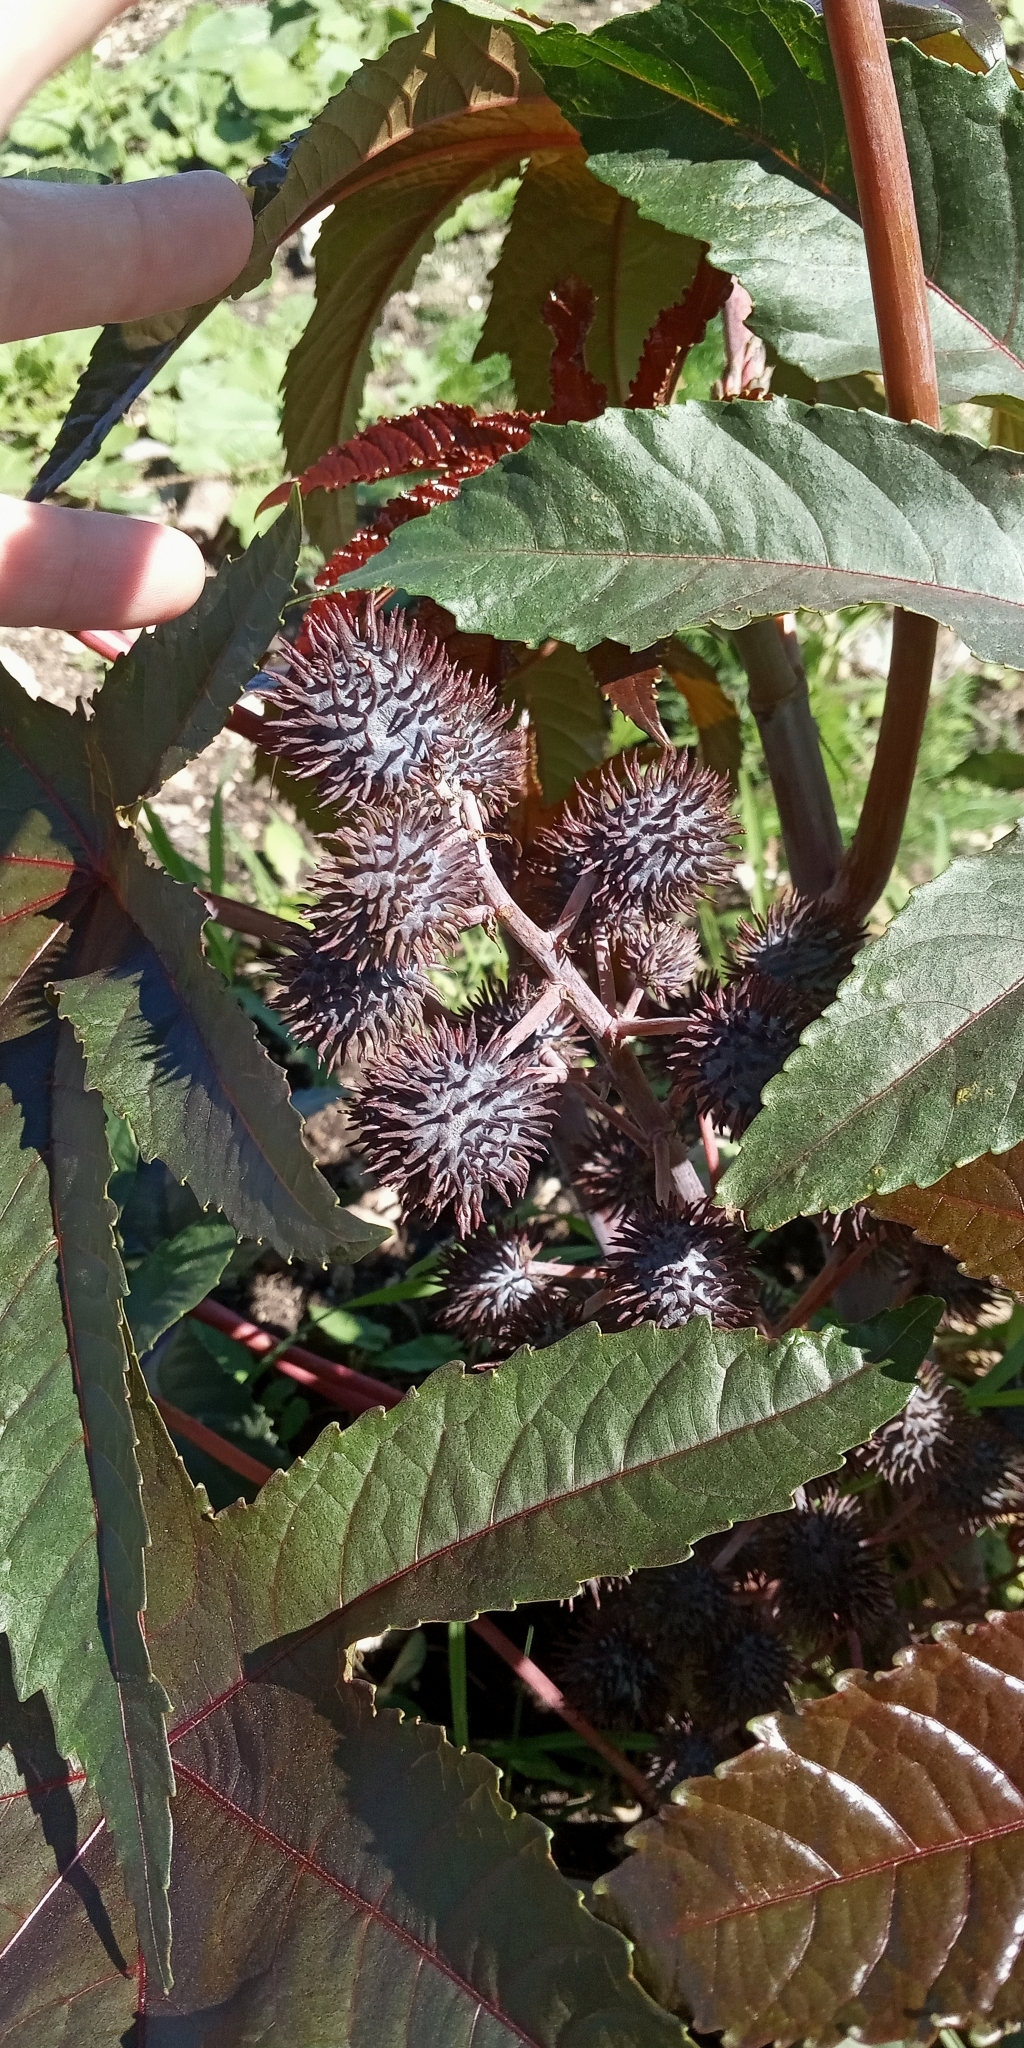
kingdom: Plantae
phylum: Tracheophyta
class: Magnoliopsida
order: Malpighiales
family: Euphorbiaceae
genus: Ricinus
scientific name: Ricinus communis
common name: Castor-oil-plant
